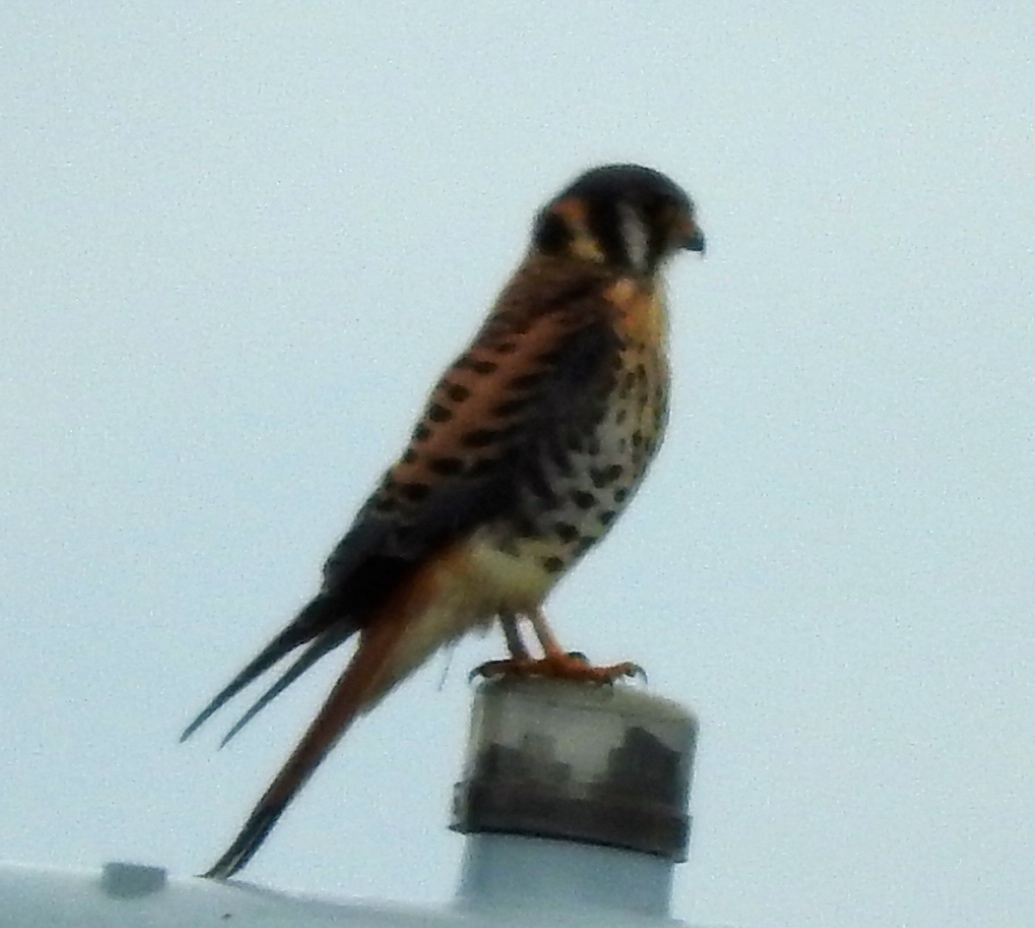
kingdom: Animalia
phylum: Chordata
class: Aves
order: Falconiformes
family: Falconidae
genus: Falco
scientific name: Falco sparverius
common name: American kestrel
